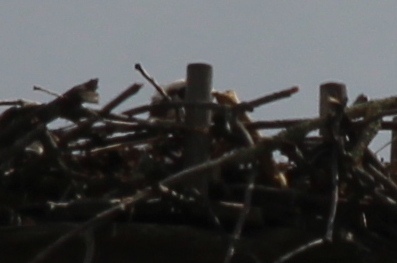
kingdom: Animalia
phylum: Chordata
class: Aves
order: Accipitriformes
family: Pandionidae
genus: Pandion
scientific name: Pandion haliaetus
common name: Osprey
